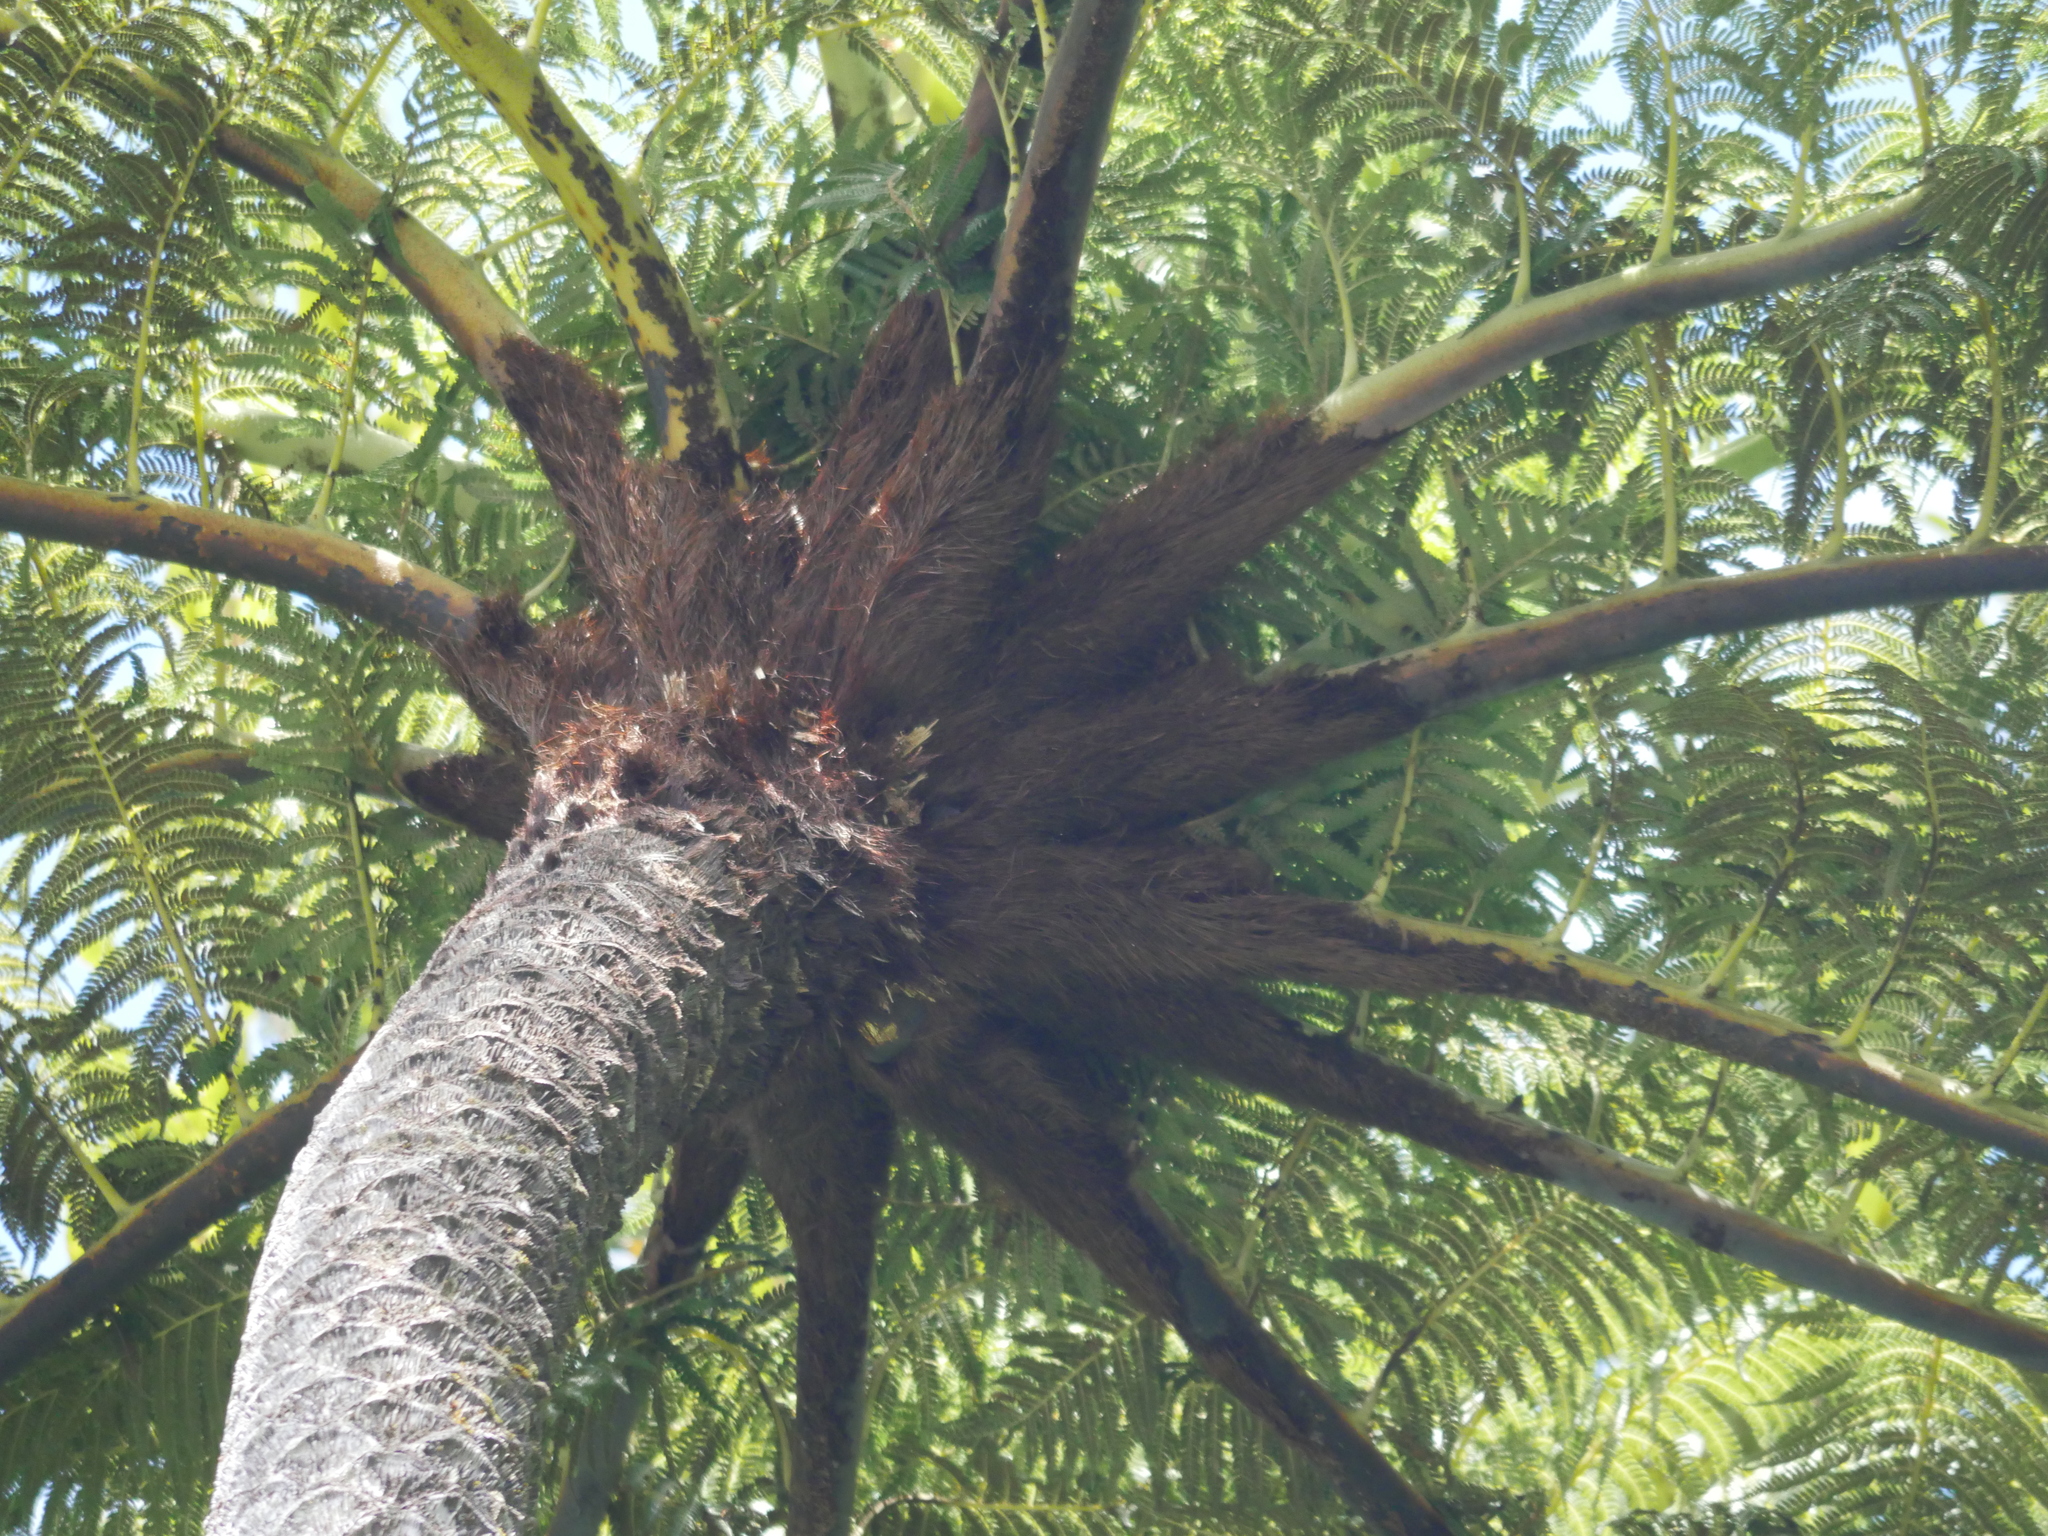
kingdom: Plantae
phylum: Tracheophyta
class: Polypodiopsida
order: Cyatheales
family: Cyatheaceae
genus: Sphaeropteris
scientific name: Sphaeropteris medullaris
